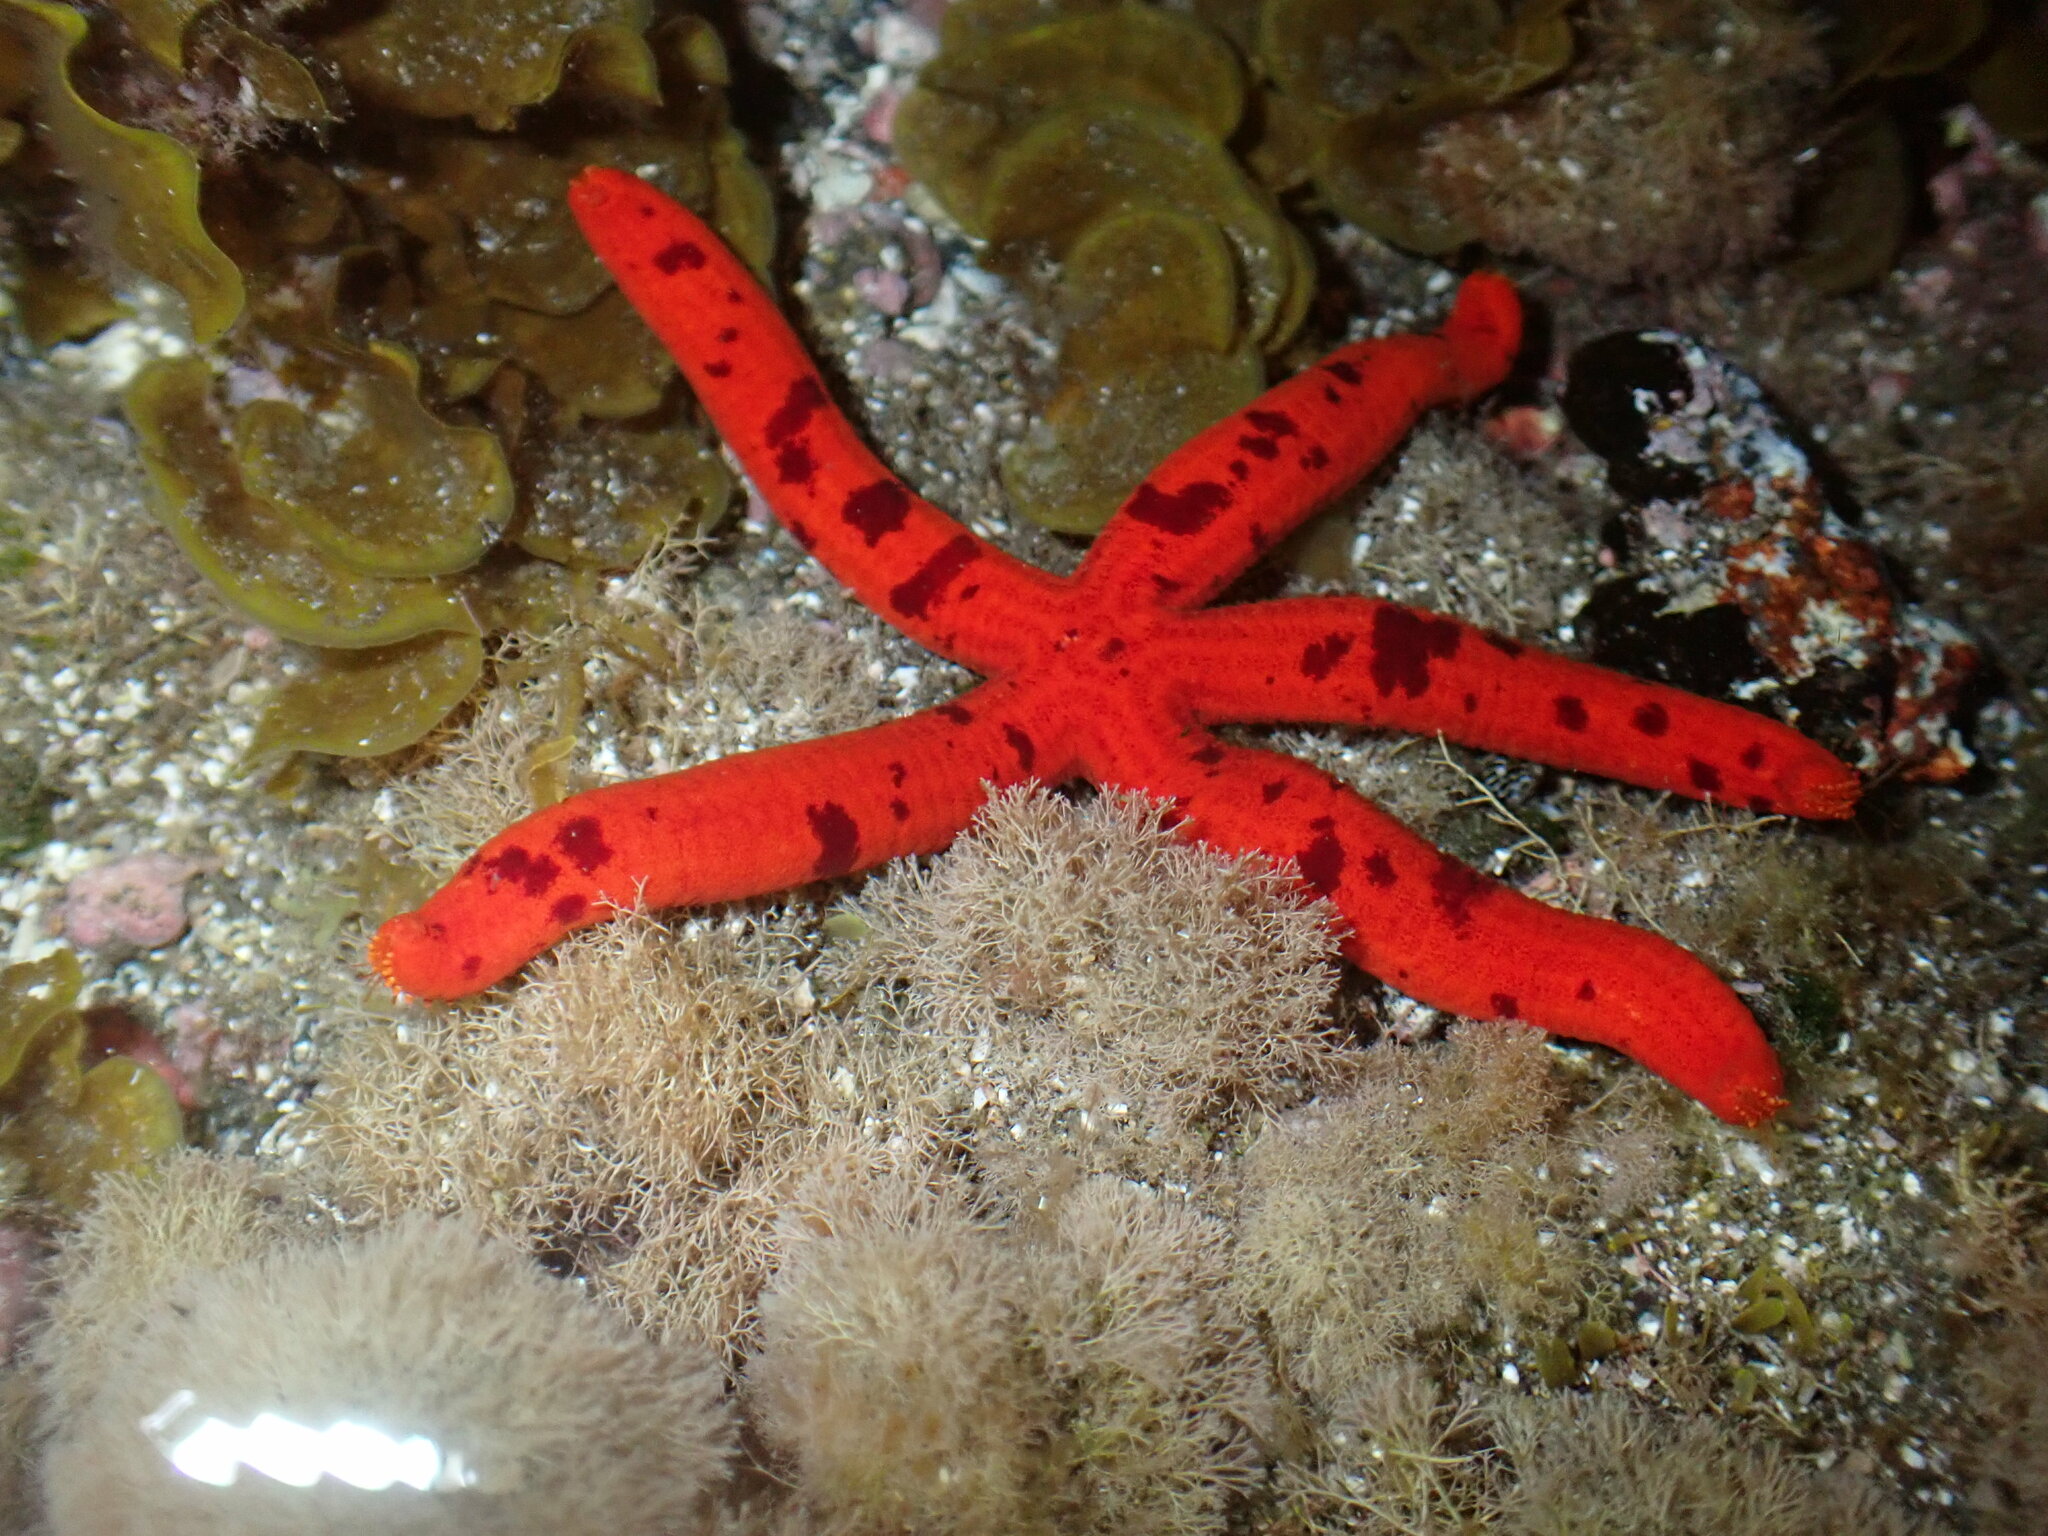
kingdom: Animalia
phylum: Echinodermata
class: Asteroidea
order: Valvatida
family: Ophidiasteridae
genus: Ophidiaster
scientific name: Ophidiaster ophidianus
